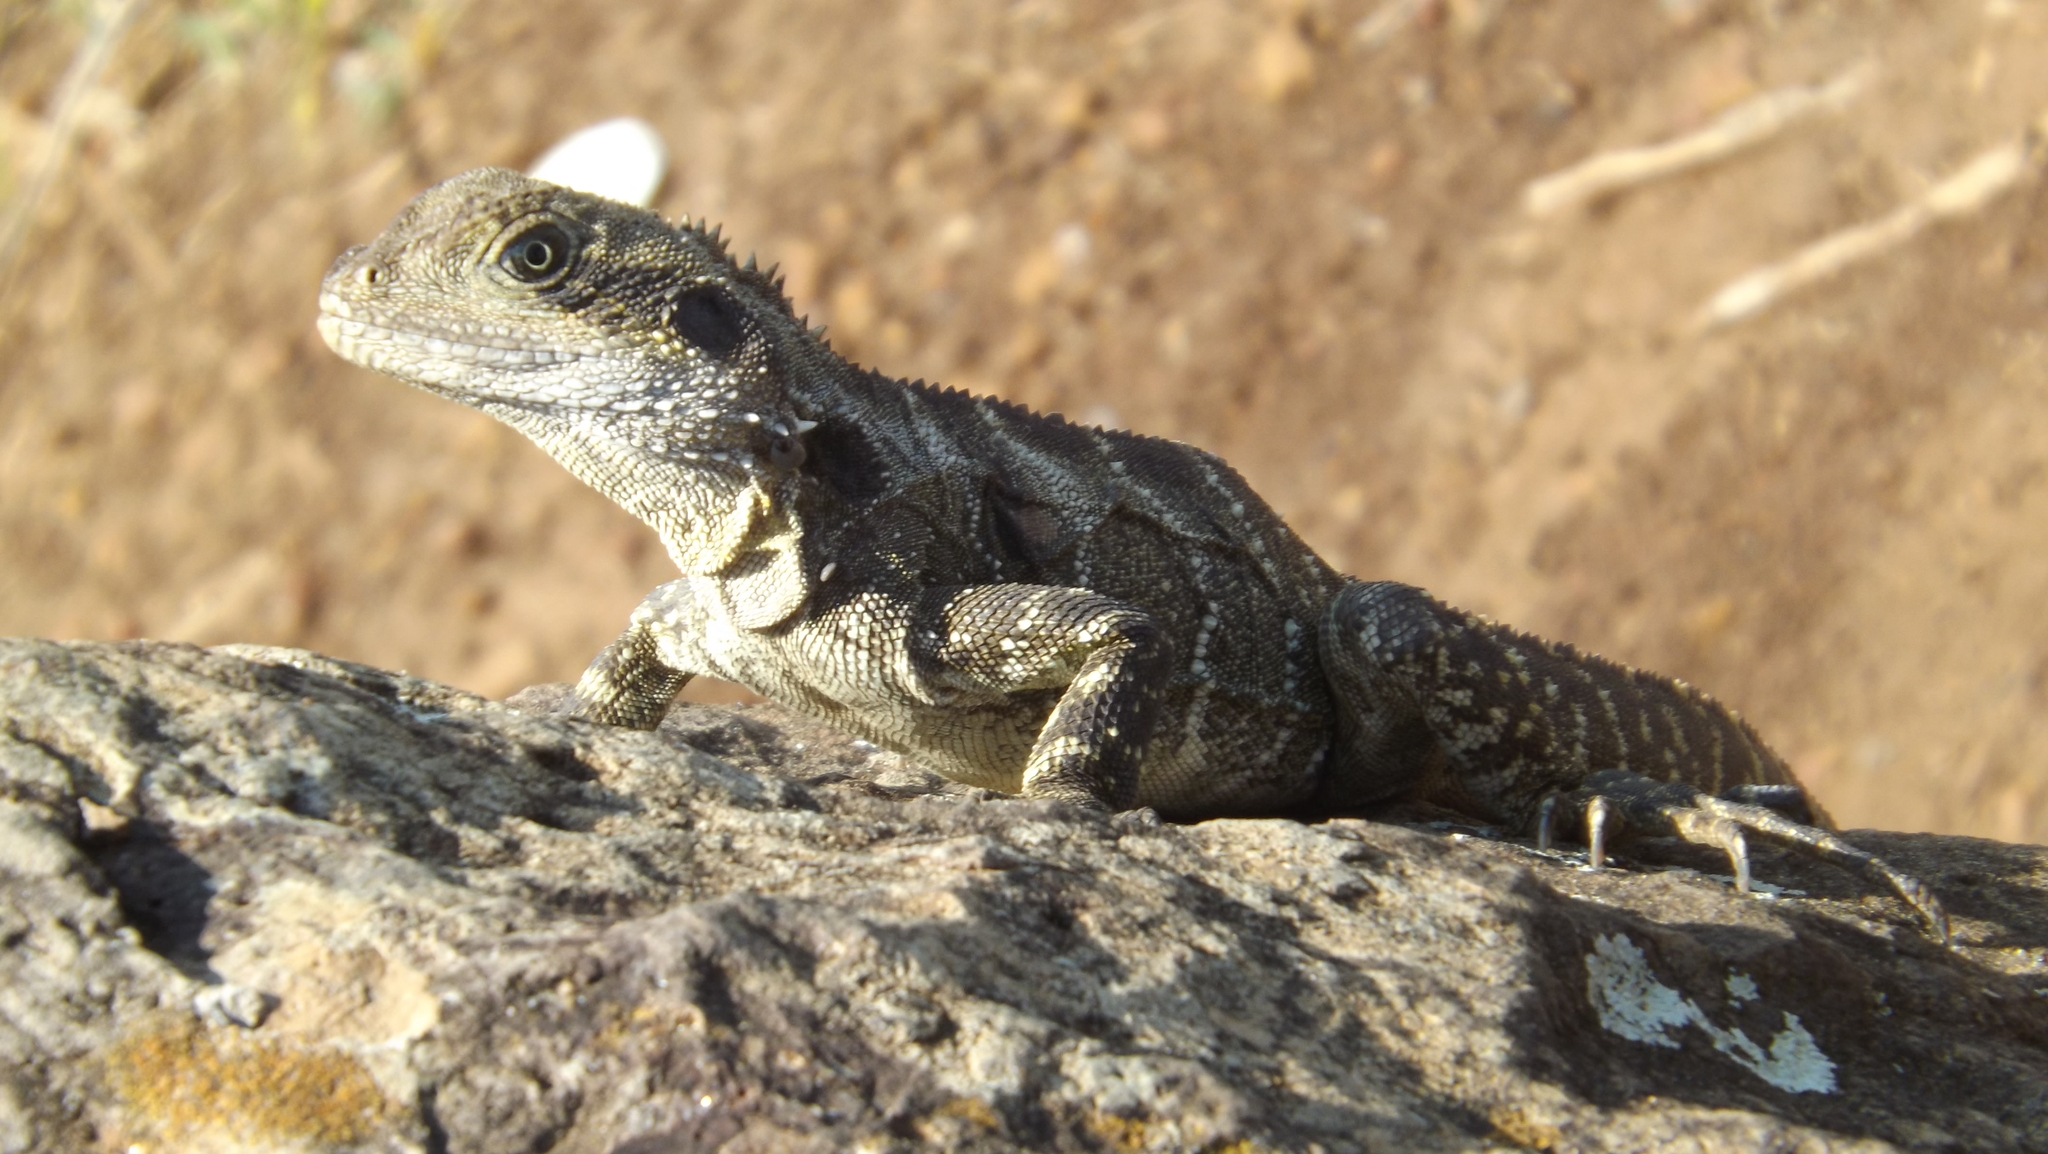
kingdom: Animalia
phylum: Chordata
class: Squamata
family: Agamidae
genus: Intellagama
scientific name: Intellagama lesueurii
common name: Eastern water dragon
